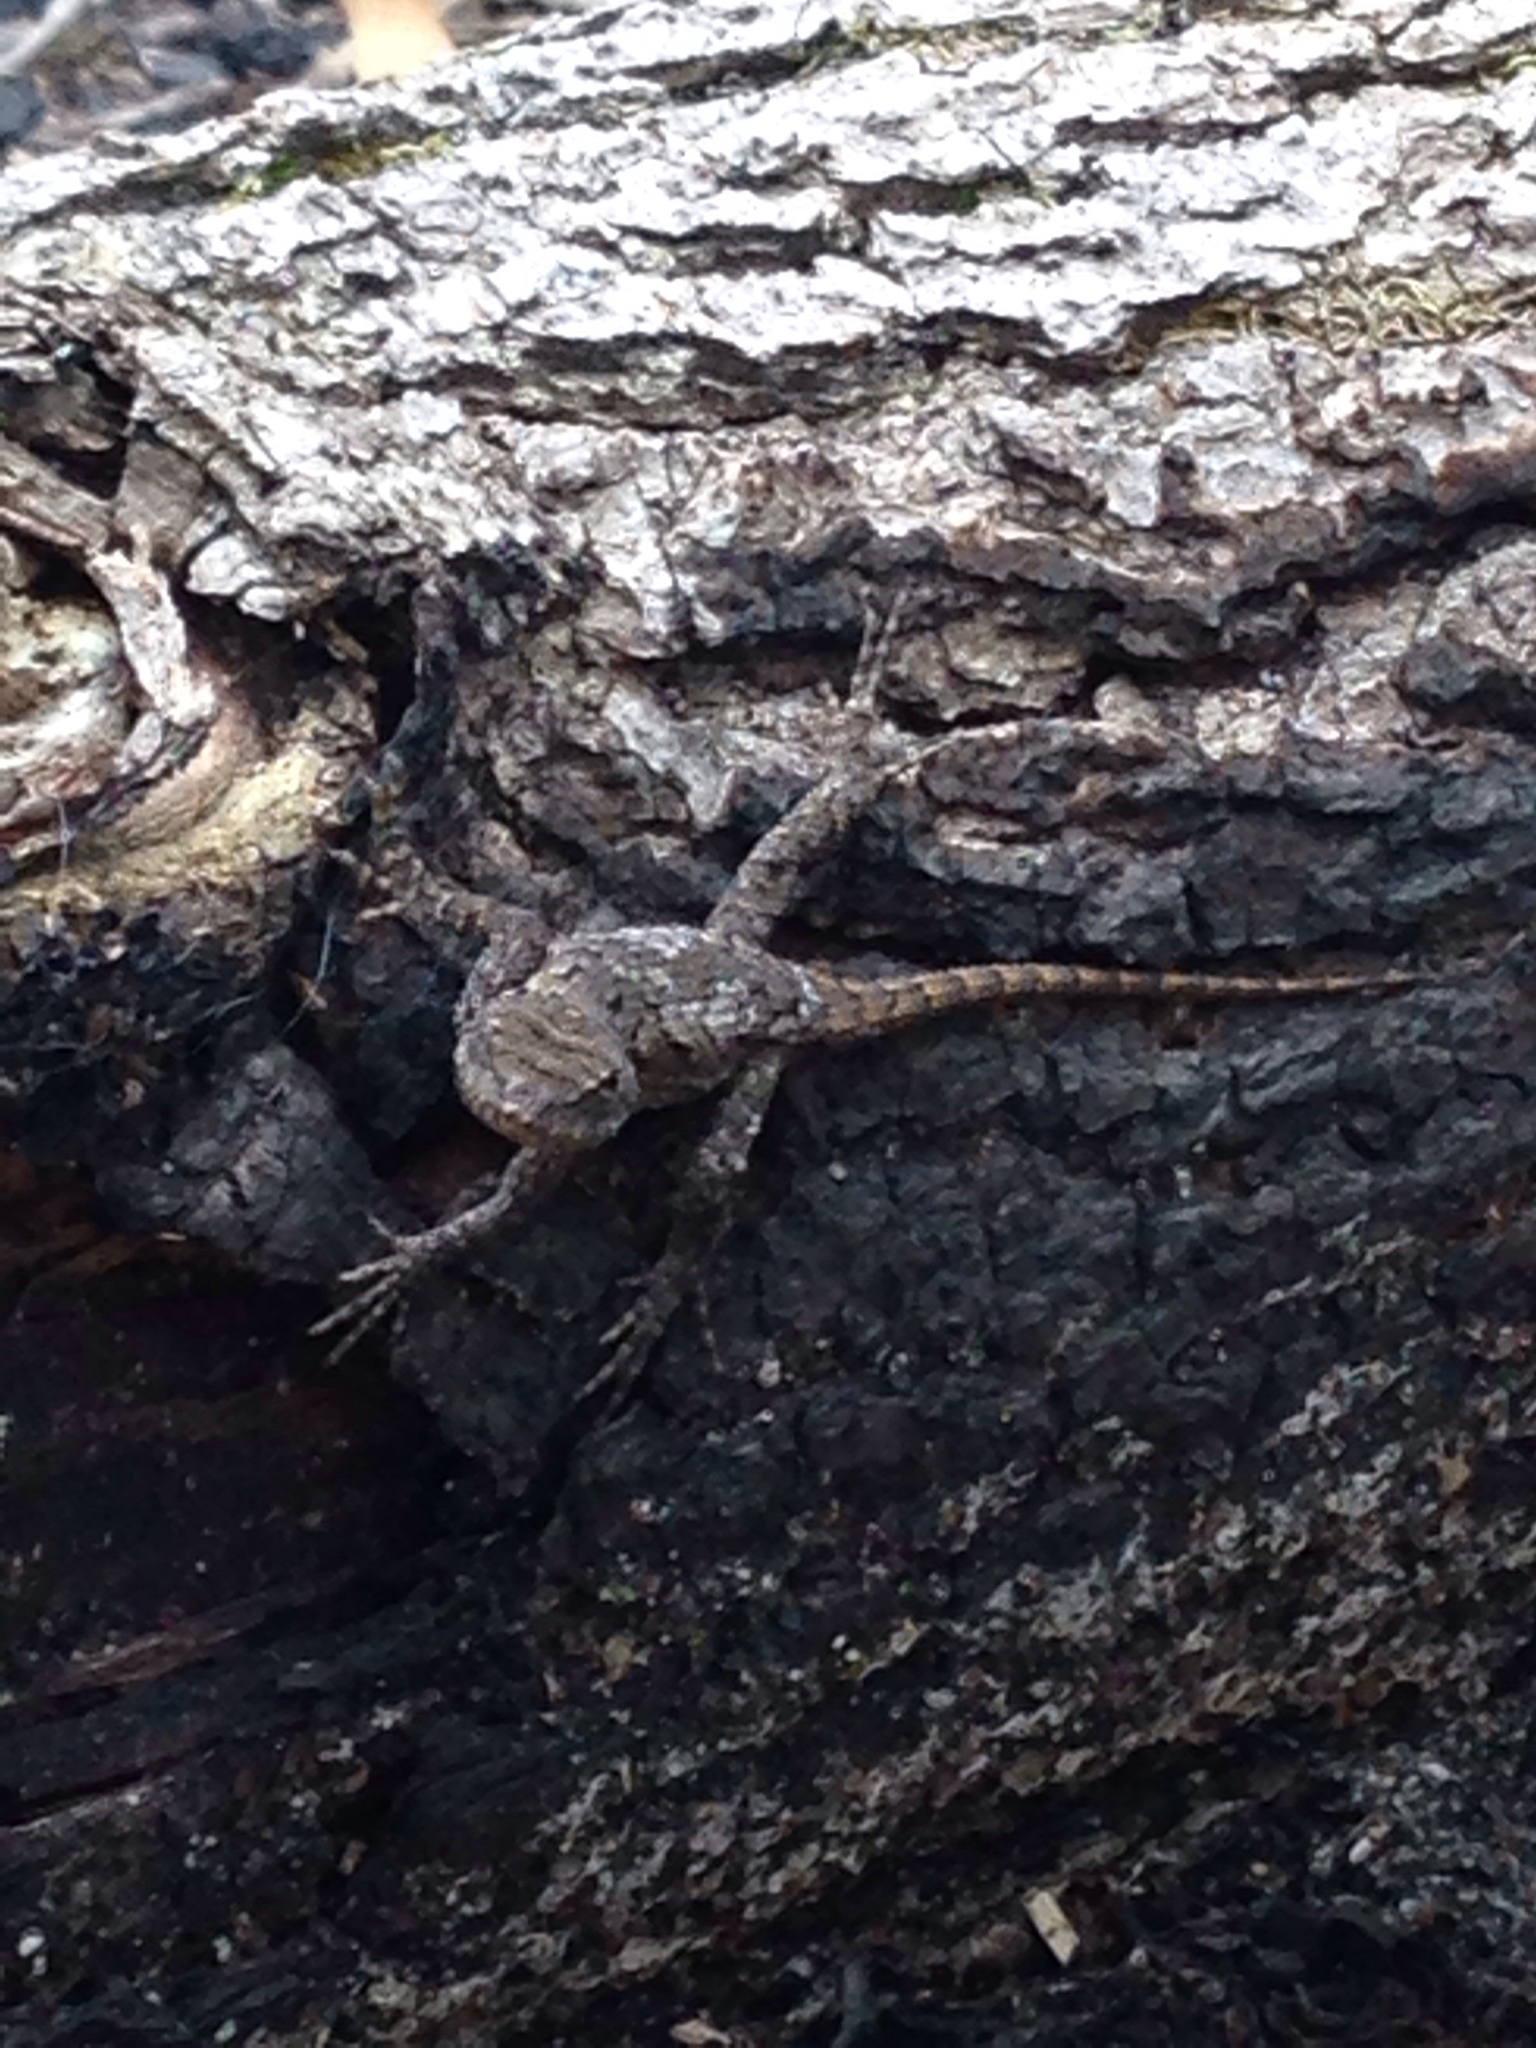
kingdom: Animalia
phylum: Chordata
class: Squamata
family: Phrynosomatidae
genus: Sceloporus
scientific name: Sceloporus undulatus
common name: Eastern fence lizard
